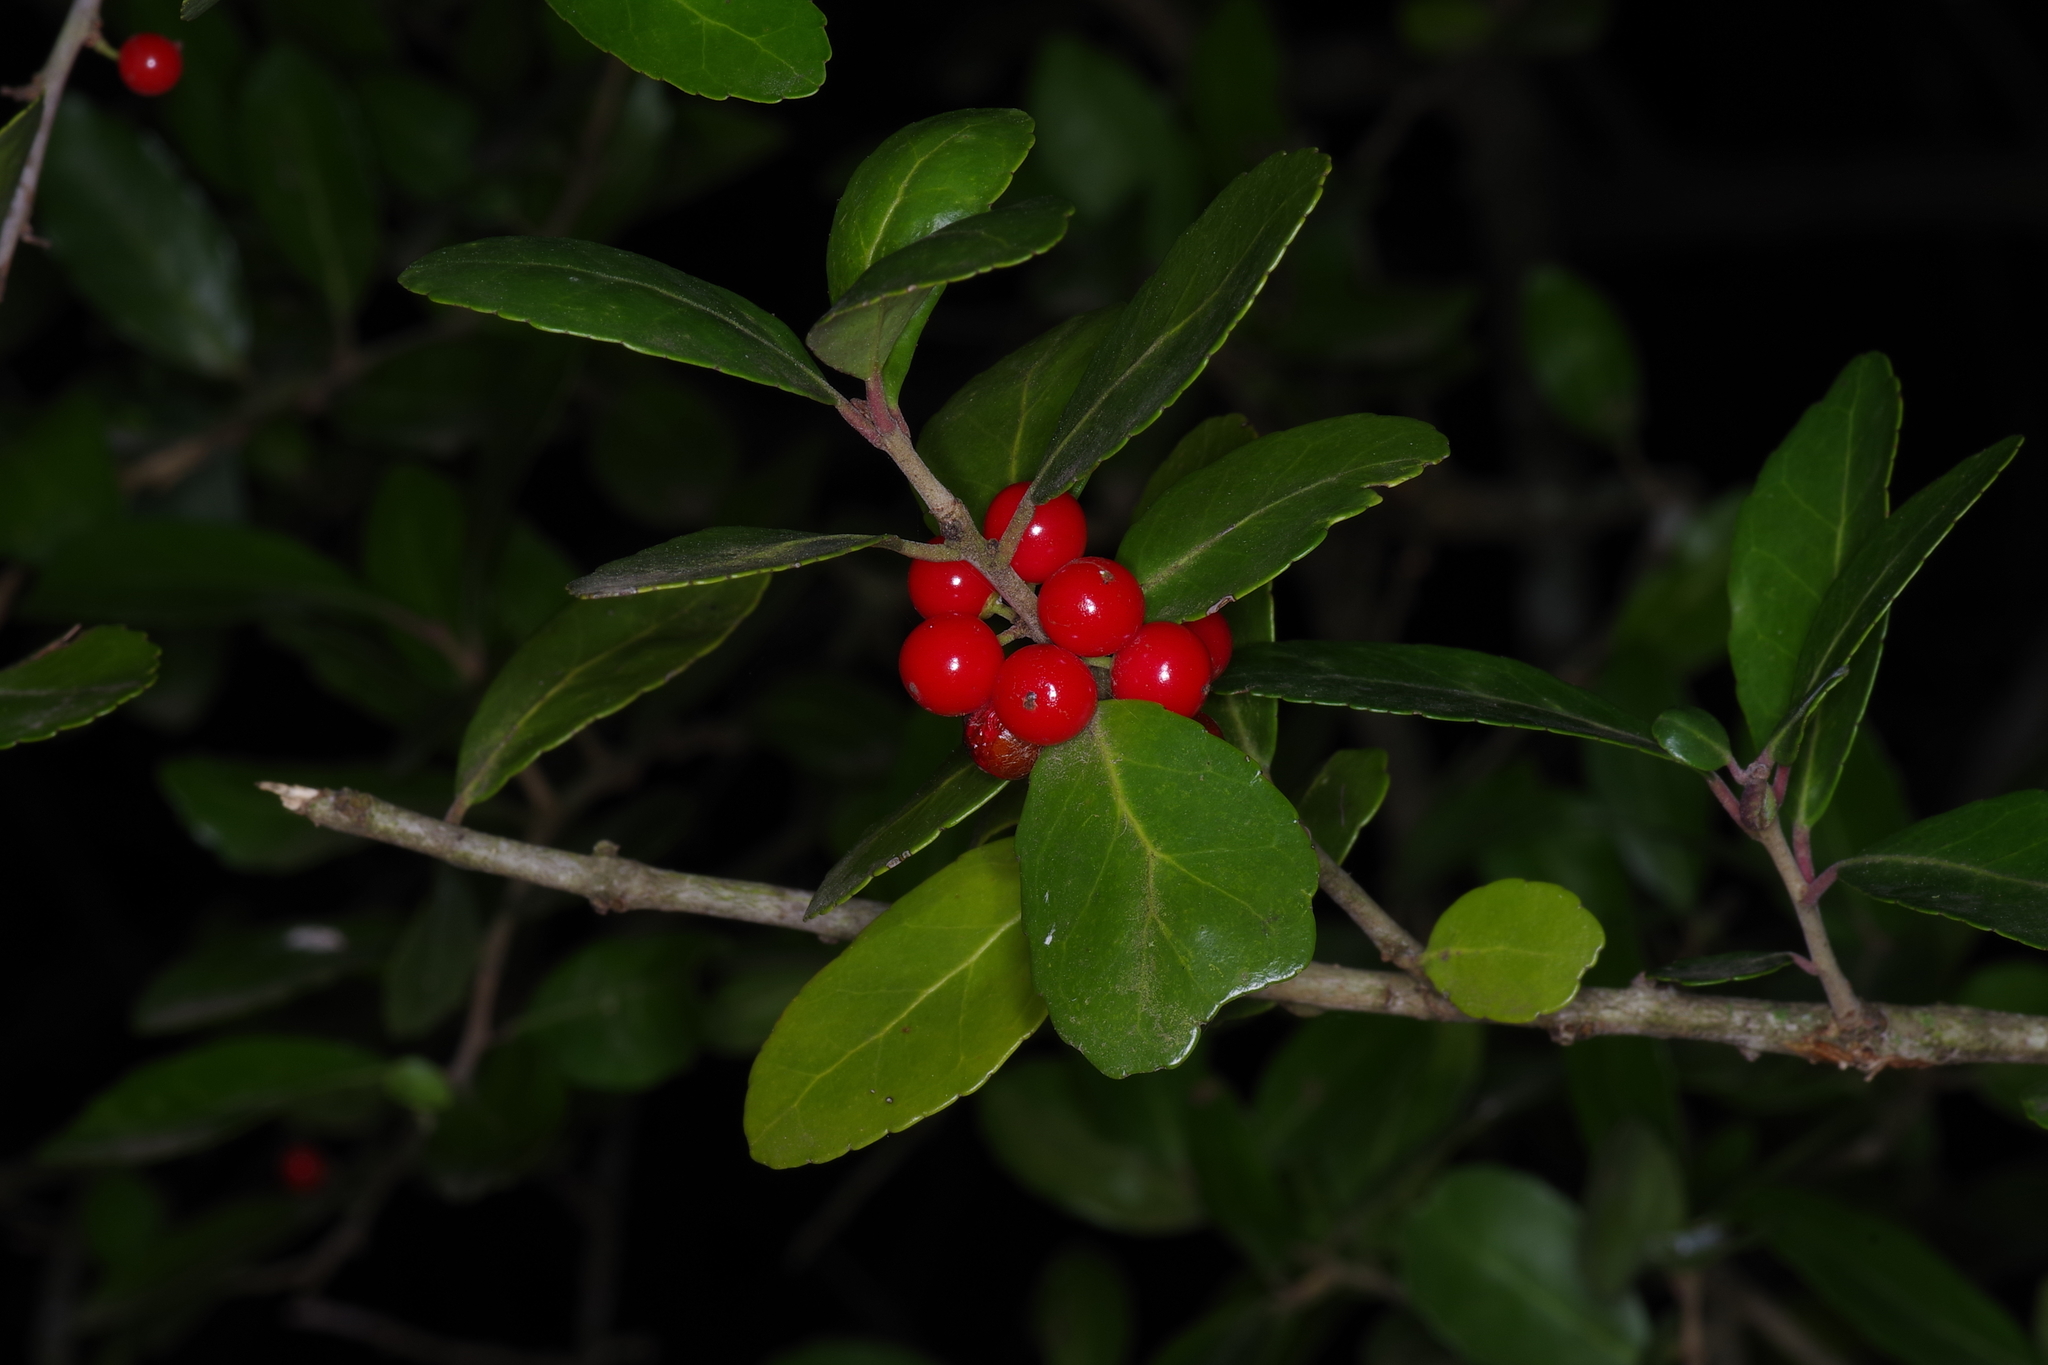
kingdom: Plantae
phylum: Tracheophyta
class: Magnoliopsida
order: Aquifoliales
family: Aquifoliaceae
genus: Ilex
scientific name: Ilex vomitoria
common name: Yaupon holly
